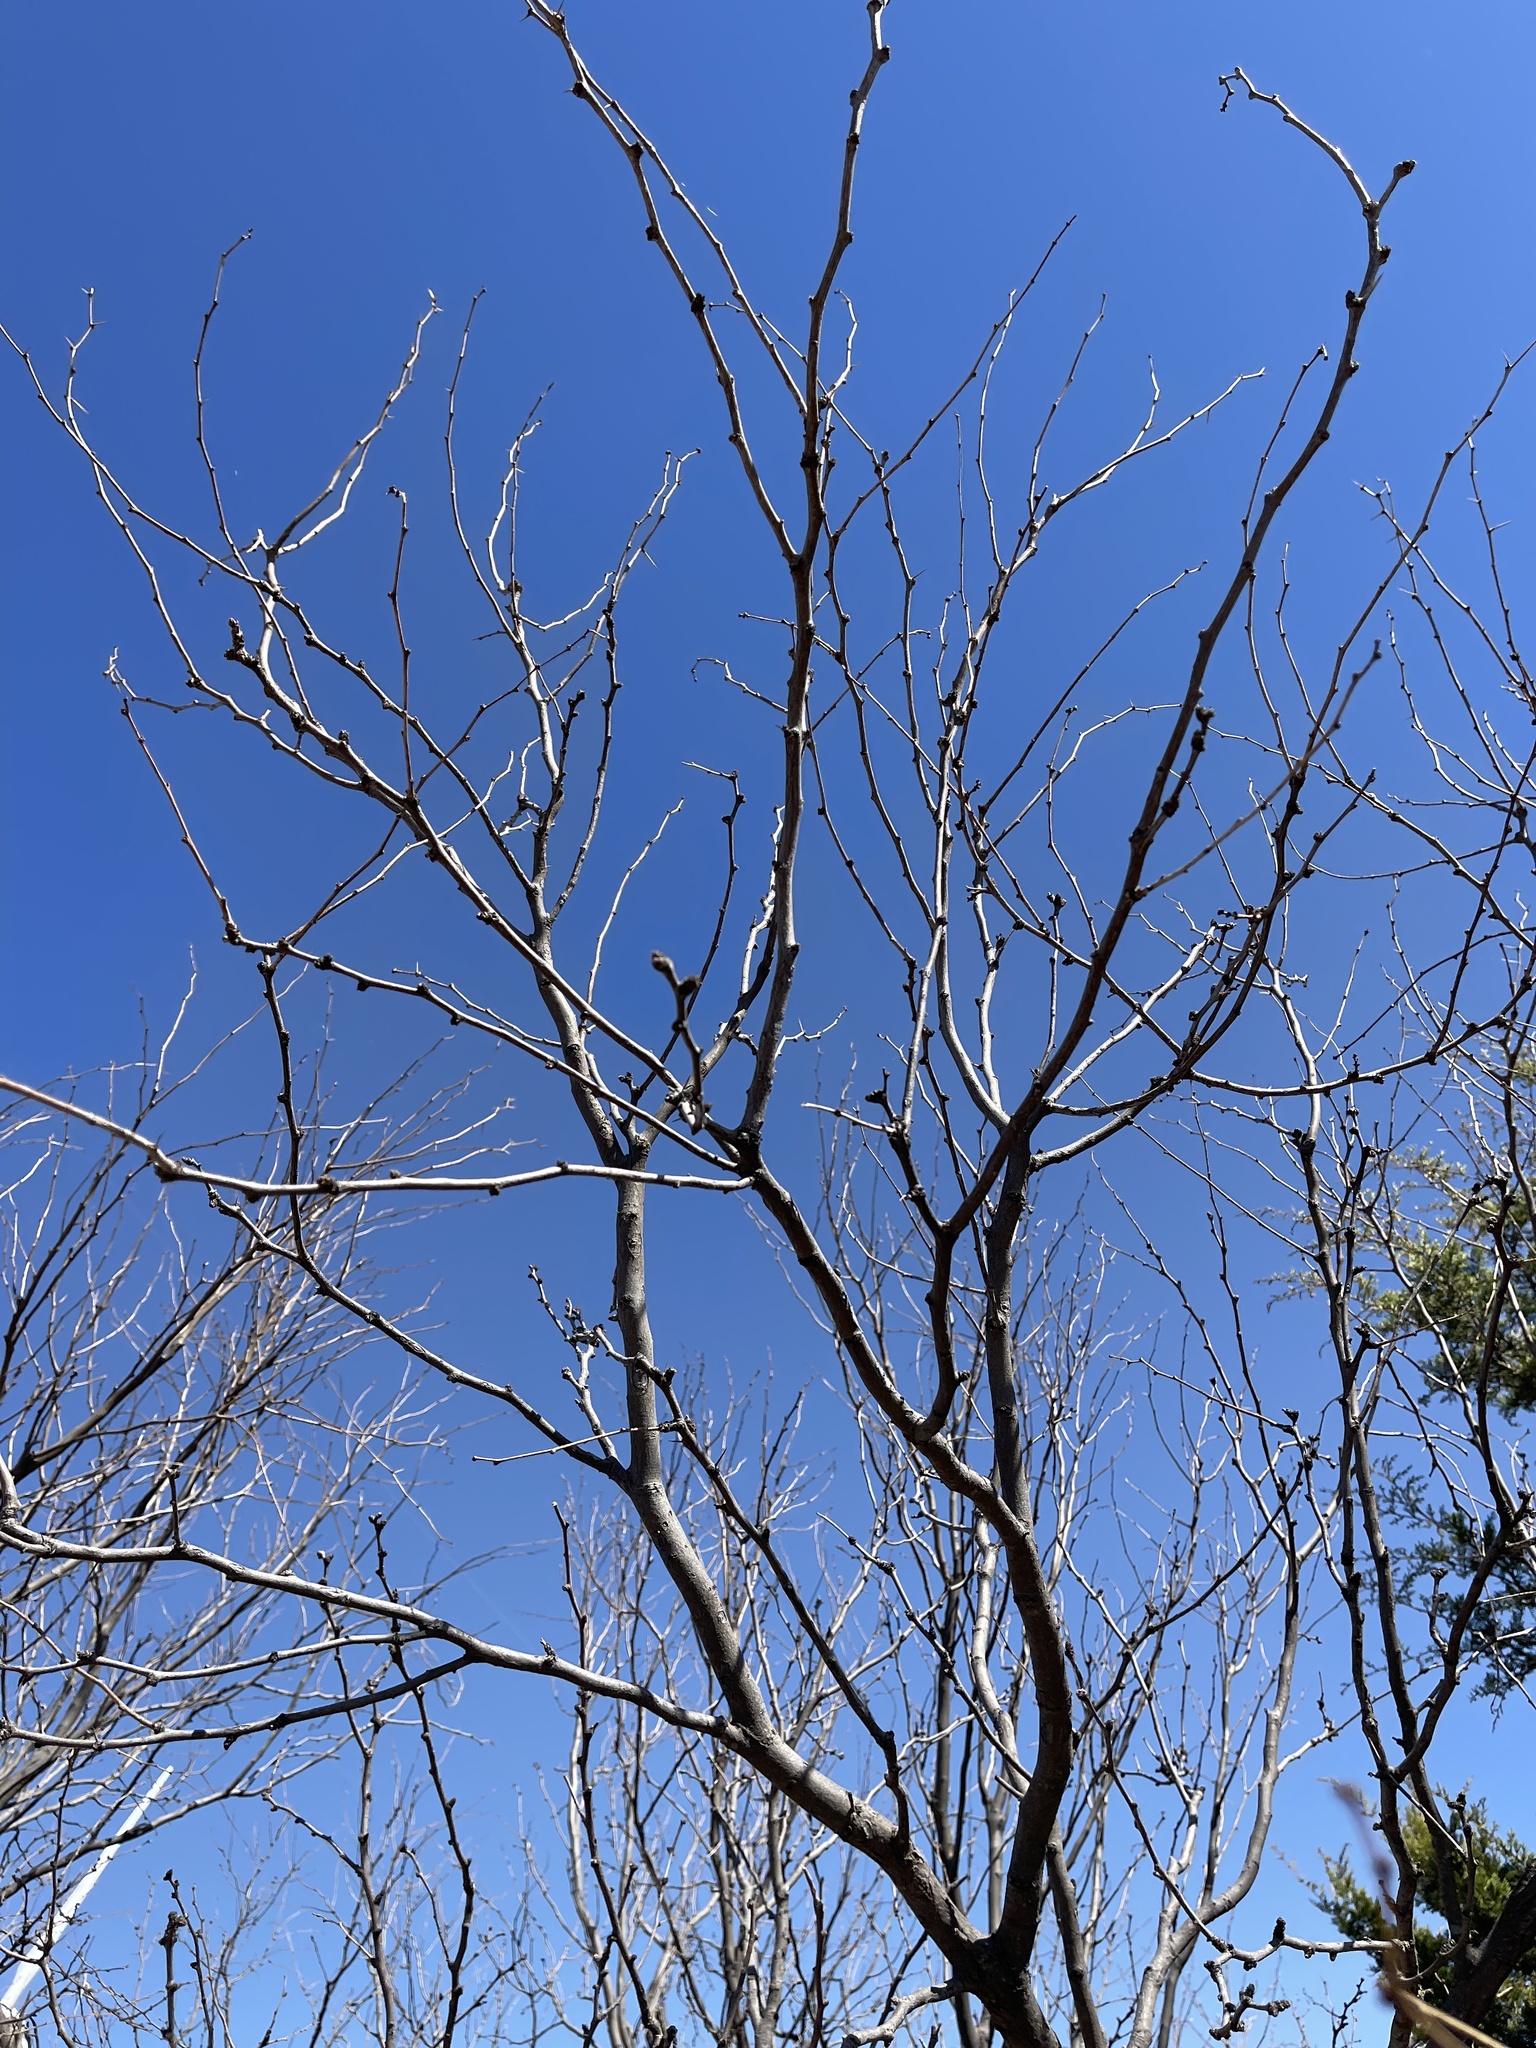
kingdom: Plantae
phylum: Tracheophyta
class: Magnoliopsida
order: Fabales
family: Fabaceae
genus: Prosopis
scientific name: Prosopis glandulosa
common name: Honey mesquite
